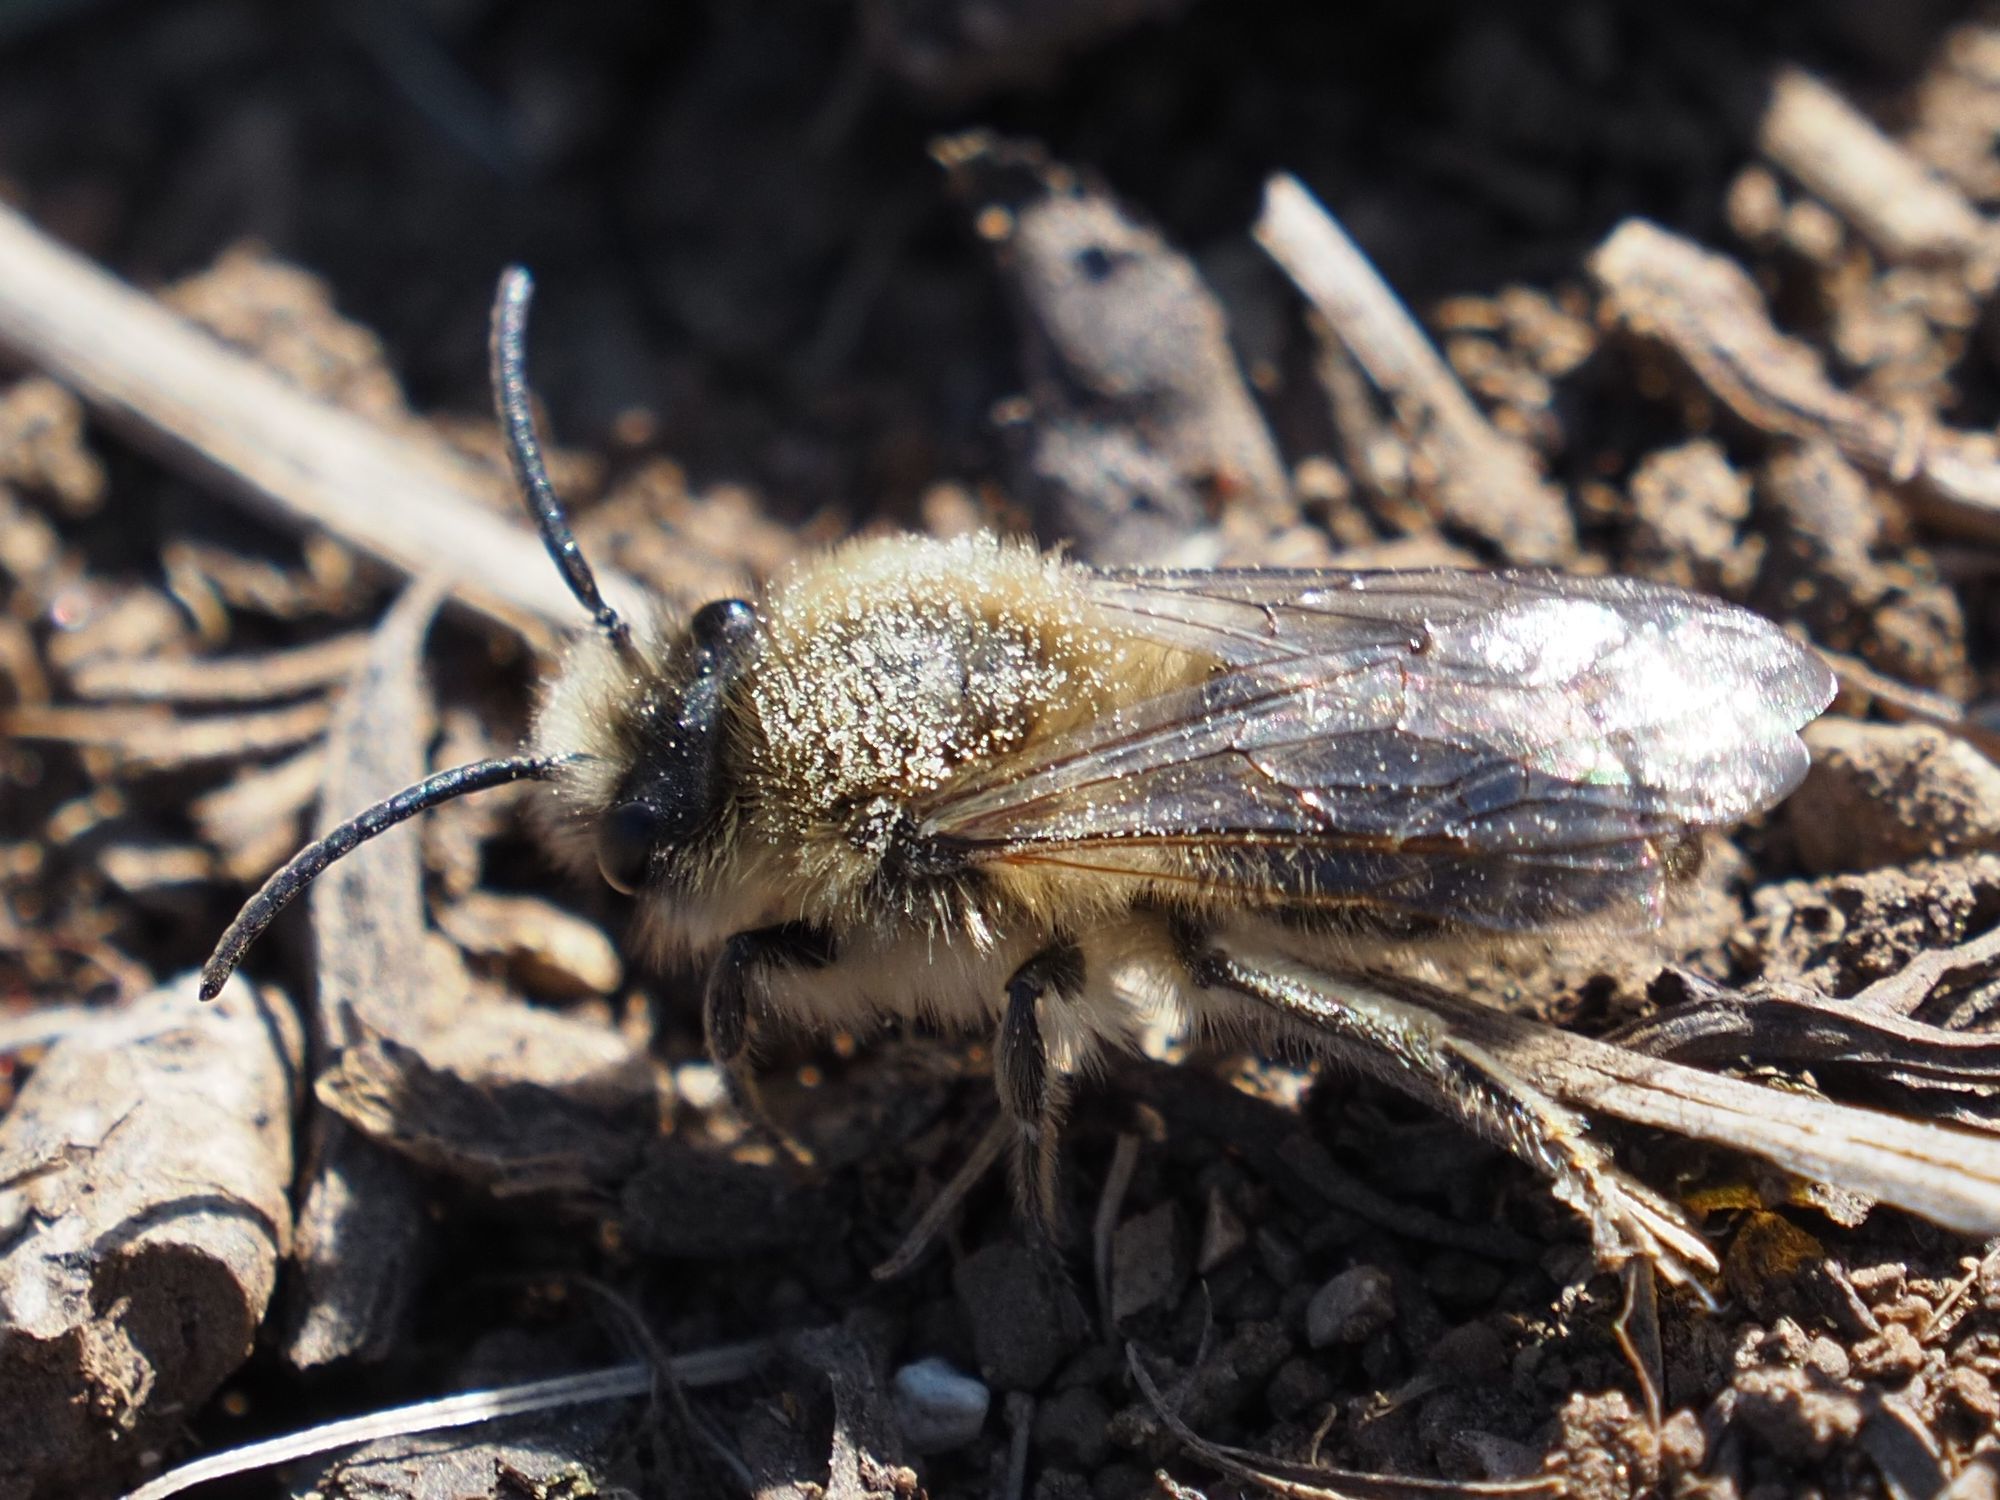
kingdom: Animalia
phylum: Arthropoda
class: Insecta
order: Hymenoptera
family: Colletidae
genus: Colletes
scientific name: Colletes cunicularius
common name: Early colletes
